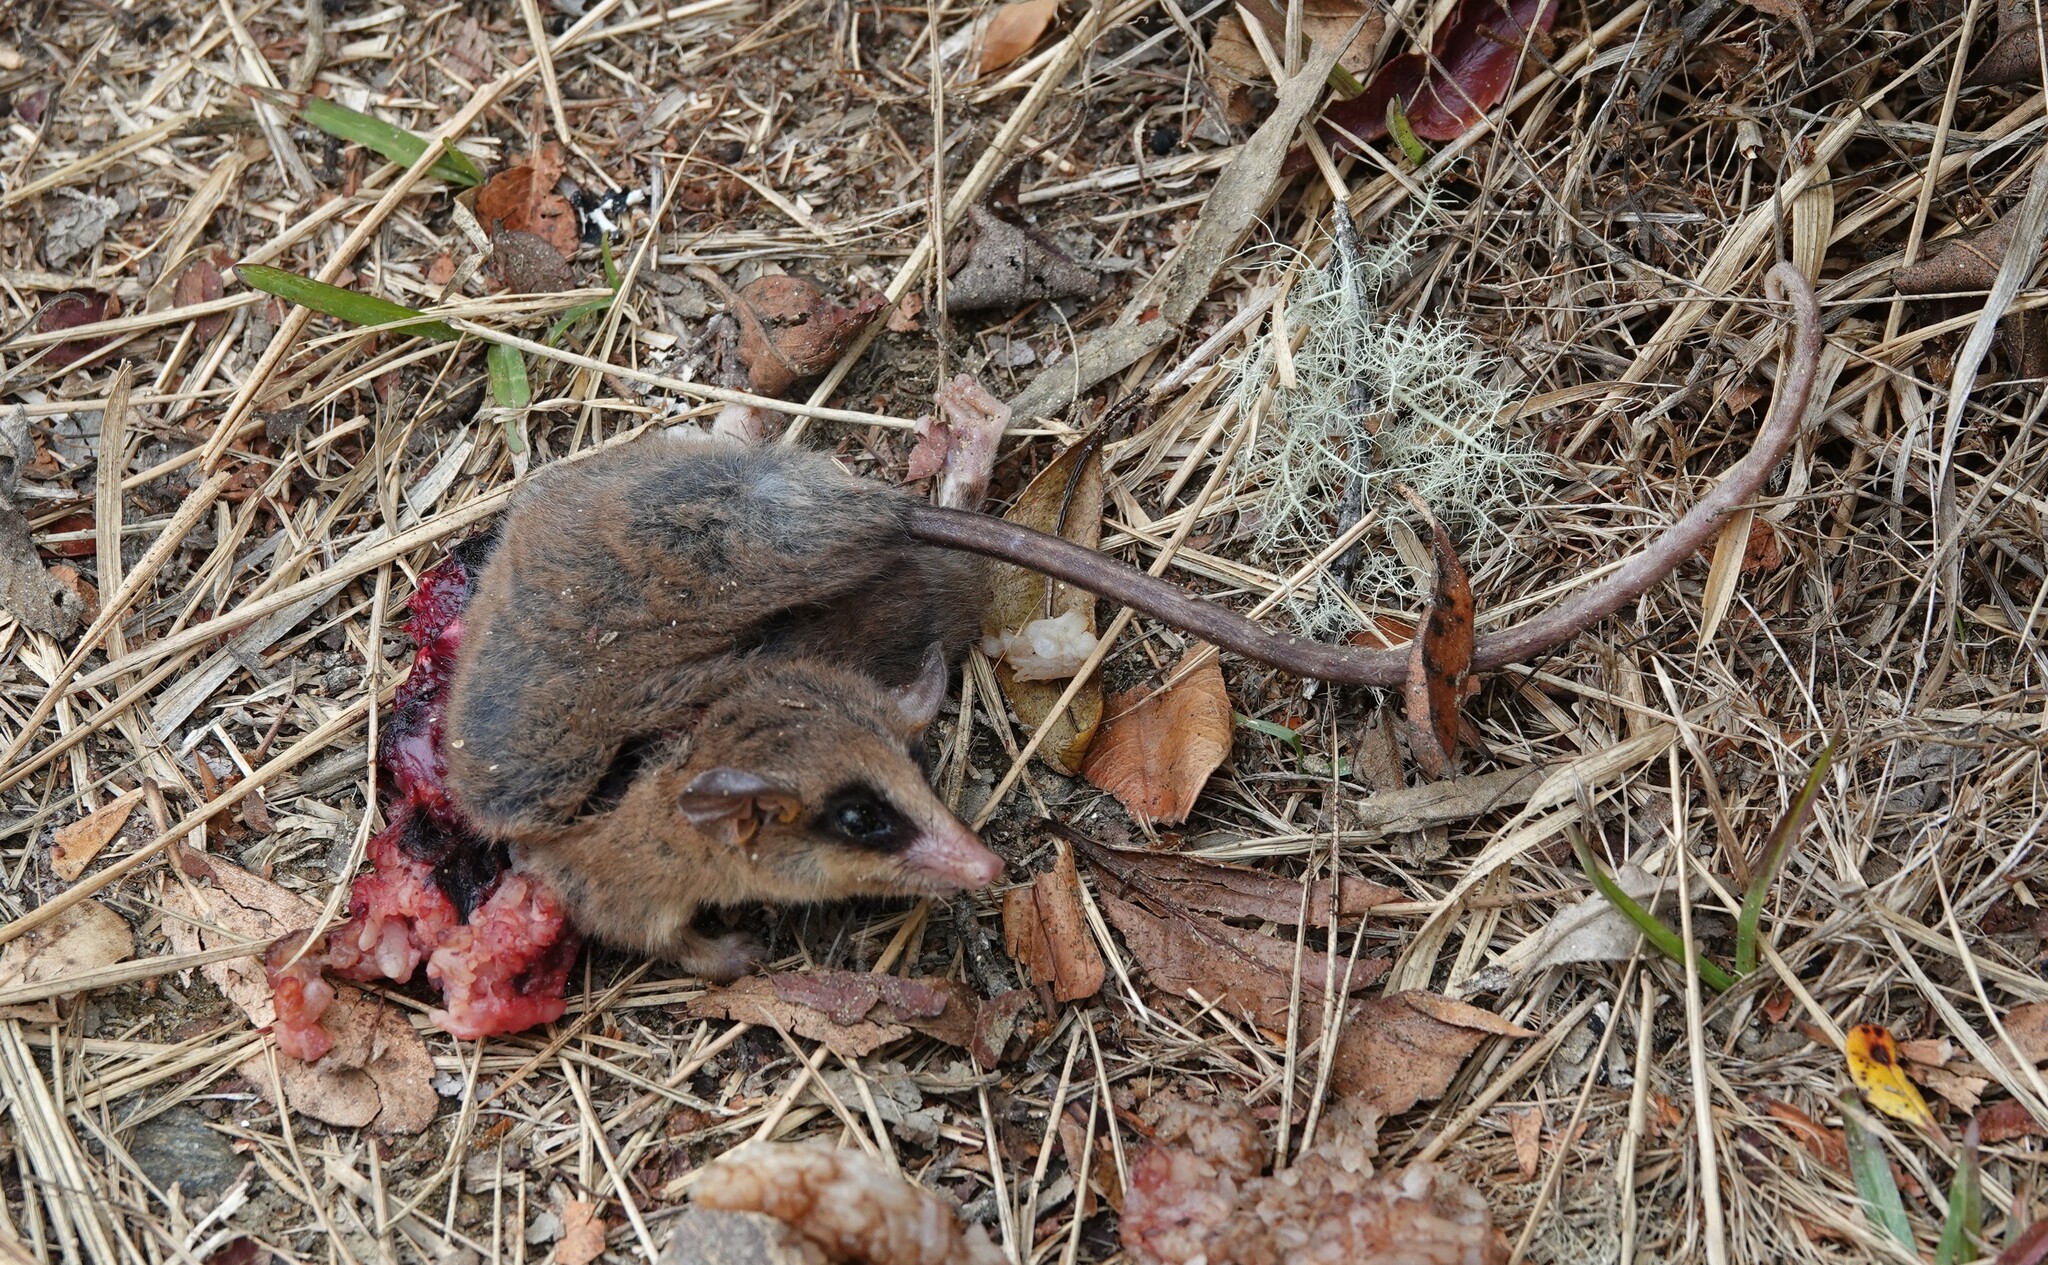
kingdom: Animalia
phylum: Chordata
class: Mammalia
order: Didelphimorphia
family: Didelphidae
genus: Marmosa
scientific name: Marmosa robinsoni
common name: Robinson's mouse opossum
